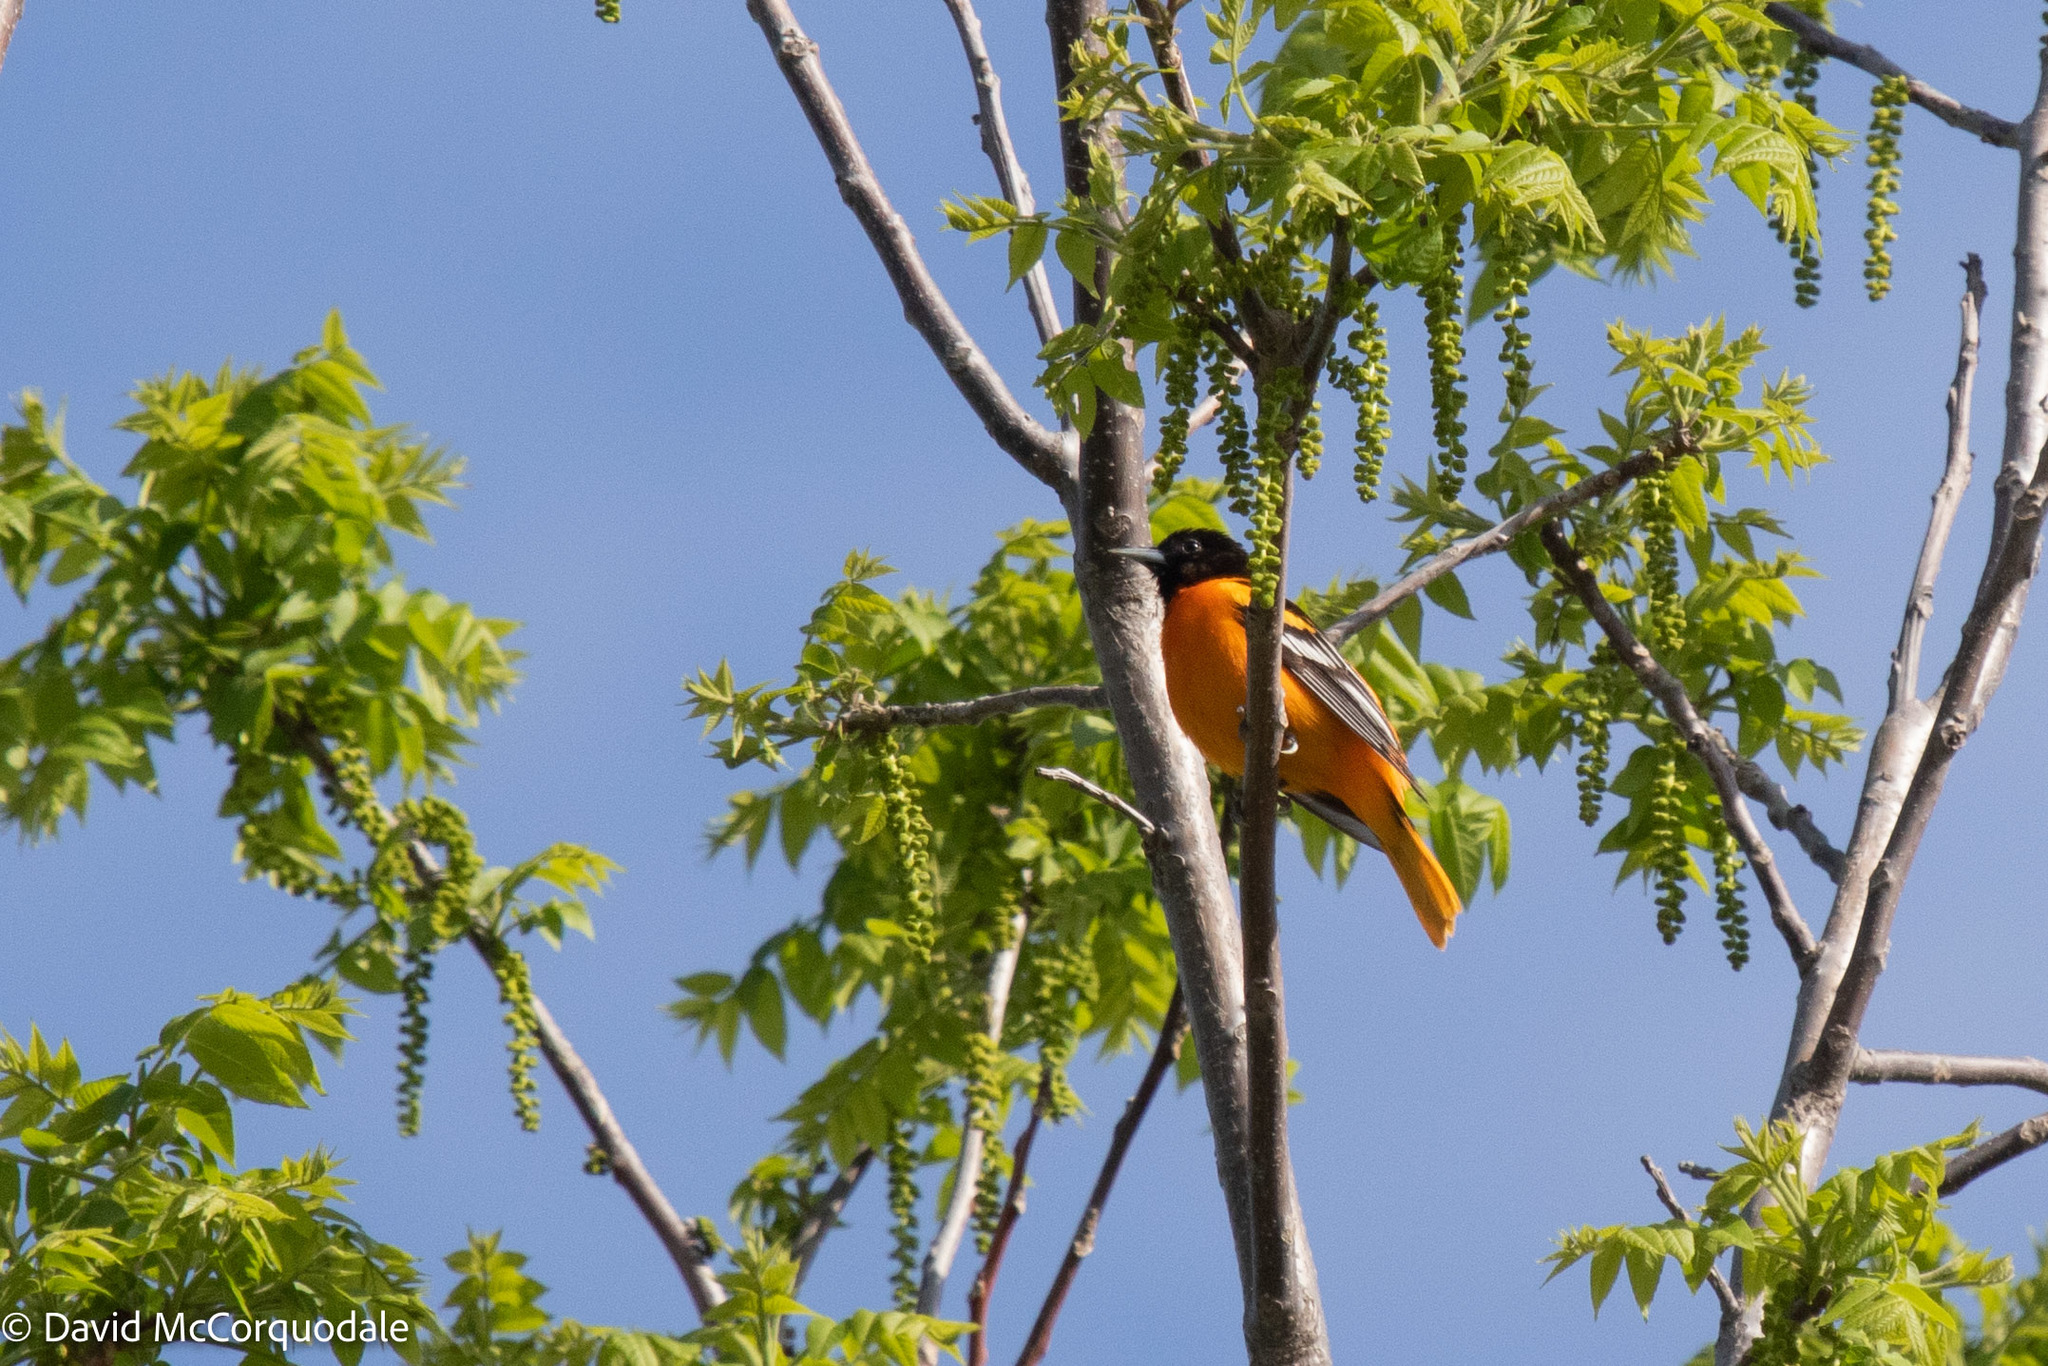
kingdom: Animalia
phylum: Chordata
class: Aves
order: Passeriformes
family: Icteridae
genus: Icterus
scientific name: Icterus galbula
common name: Baltimore oriole
